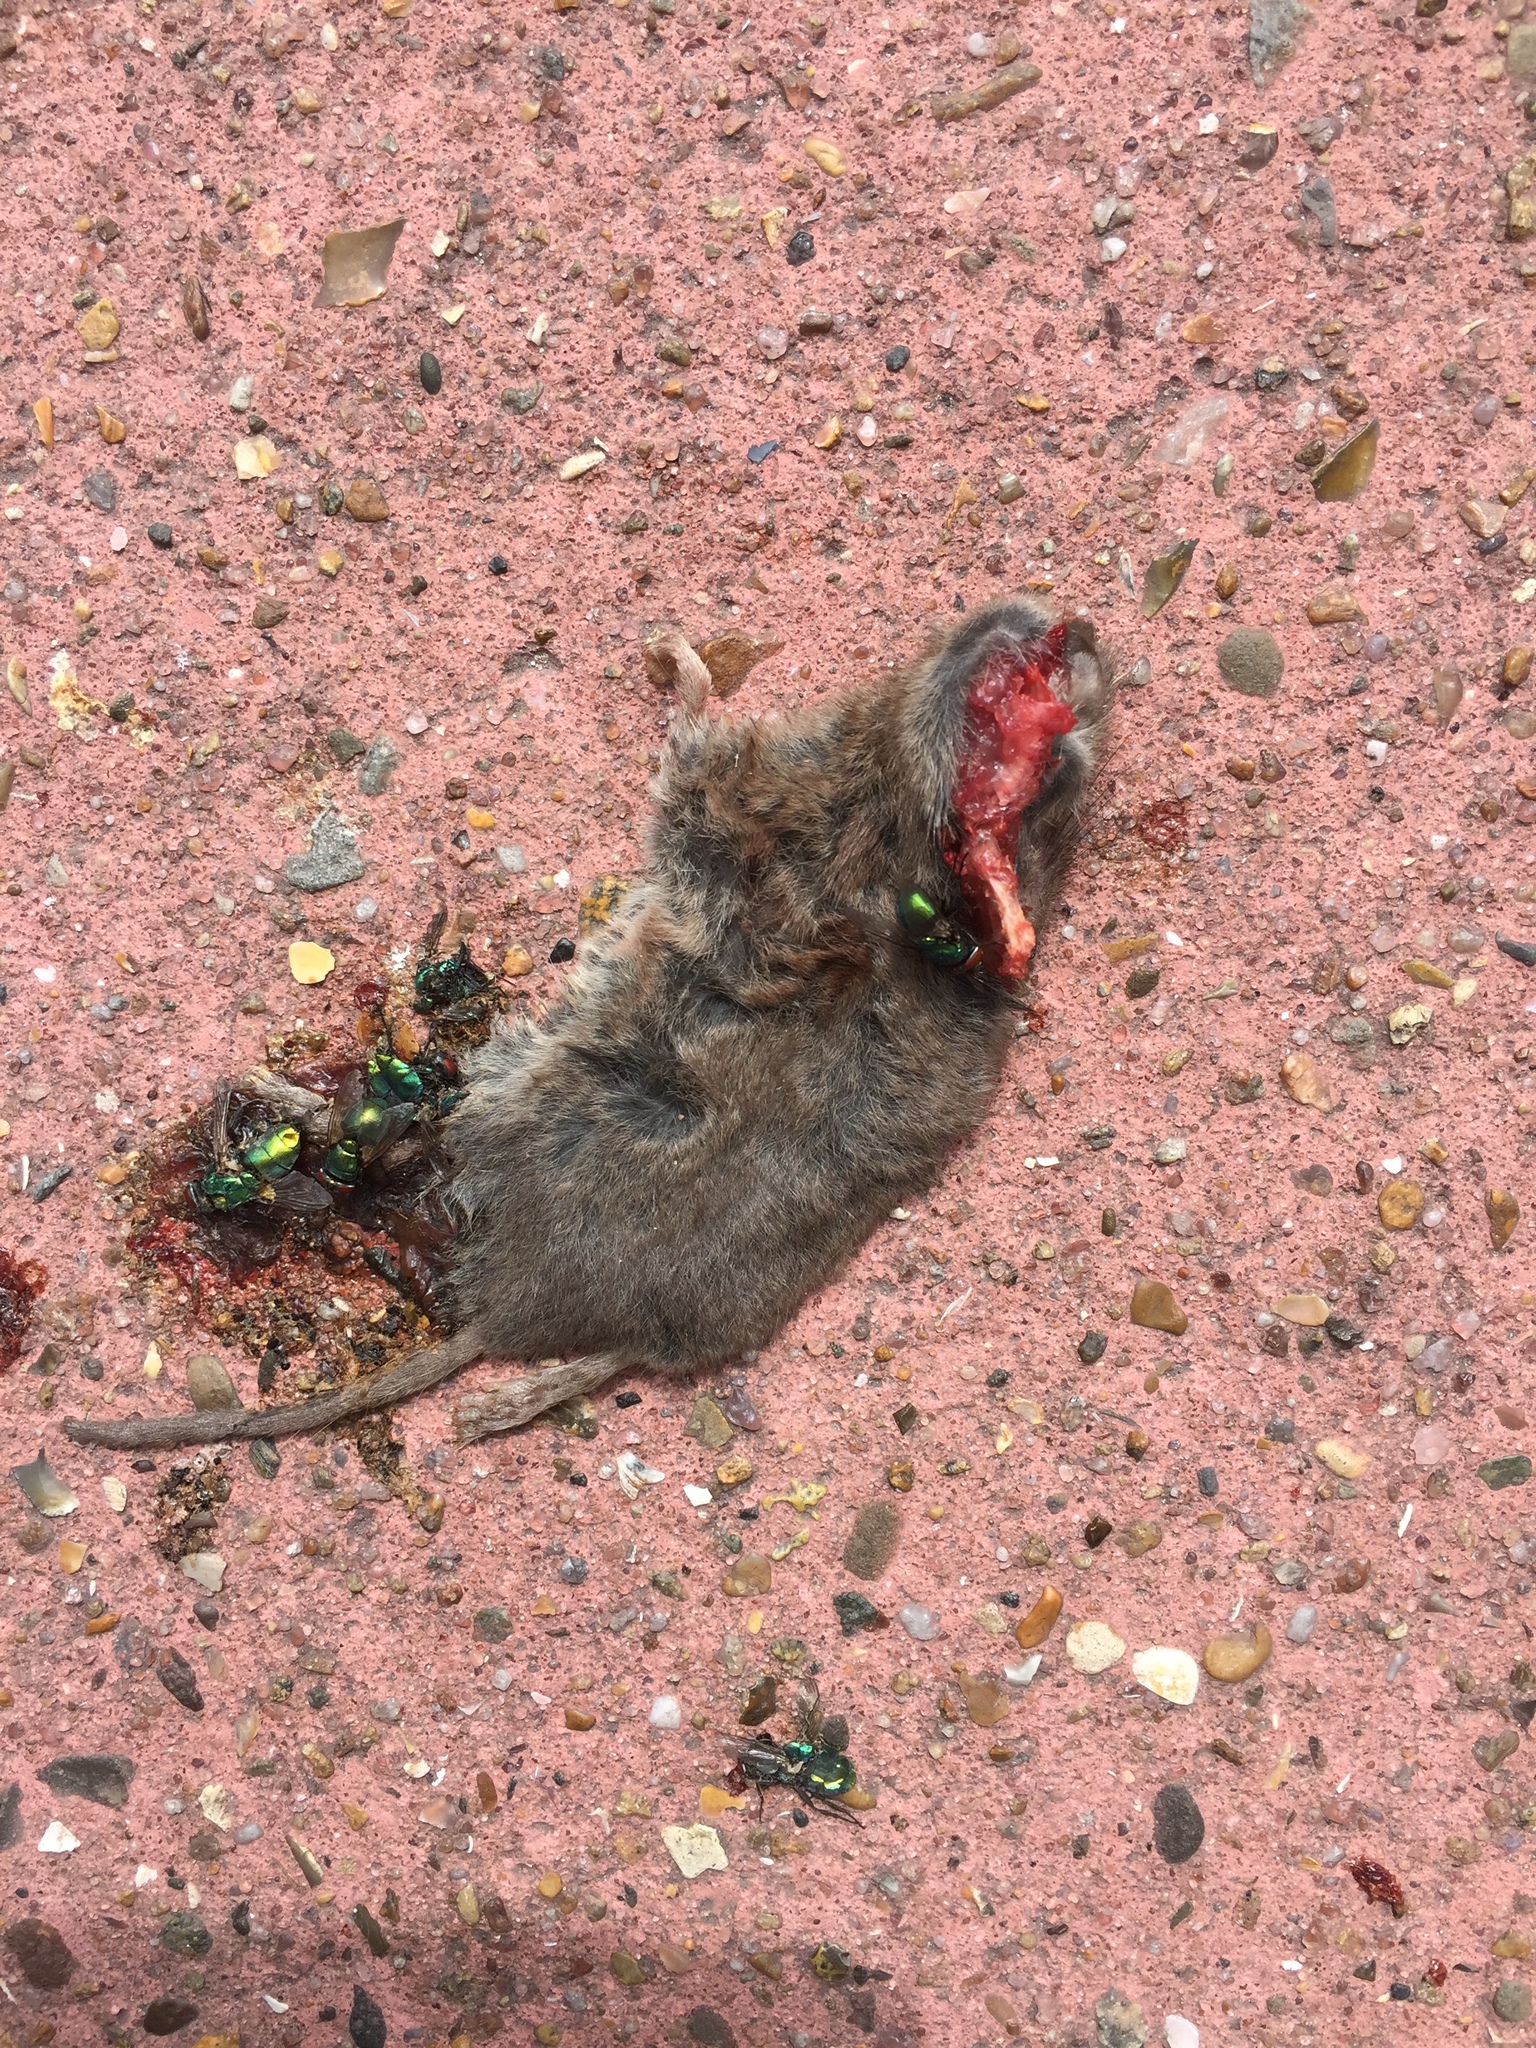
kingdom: Animalia
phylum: Chordata
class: Mammalia
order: Rodentia
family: Cricetidae
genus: Myodes
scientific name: Myodes glareolus
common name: Bank vole
